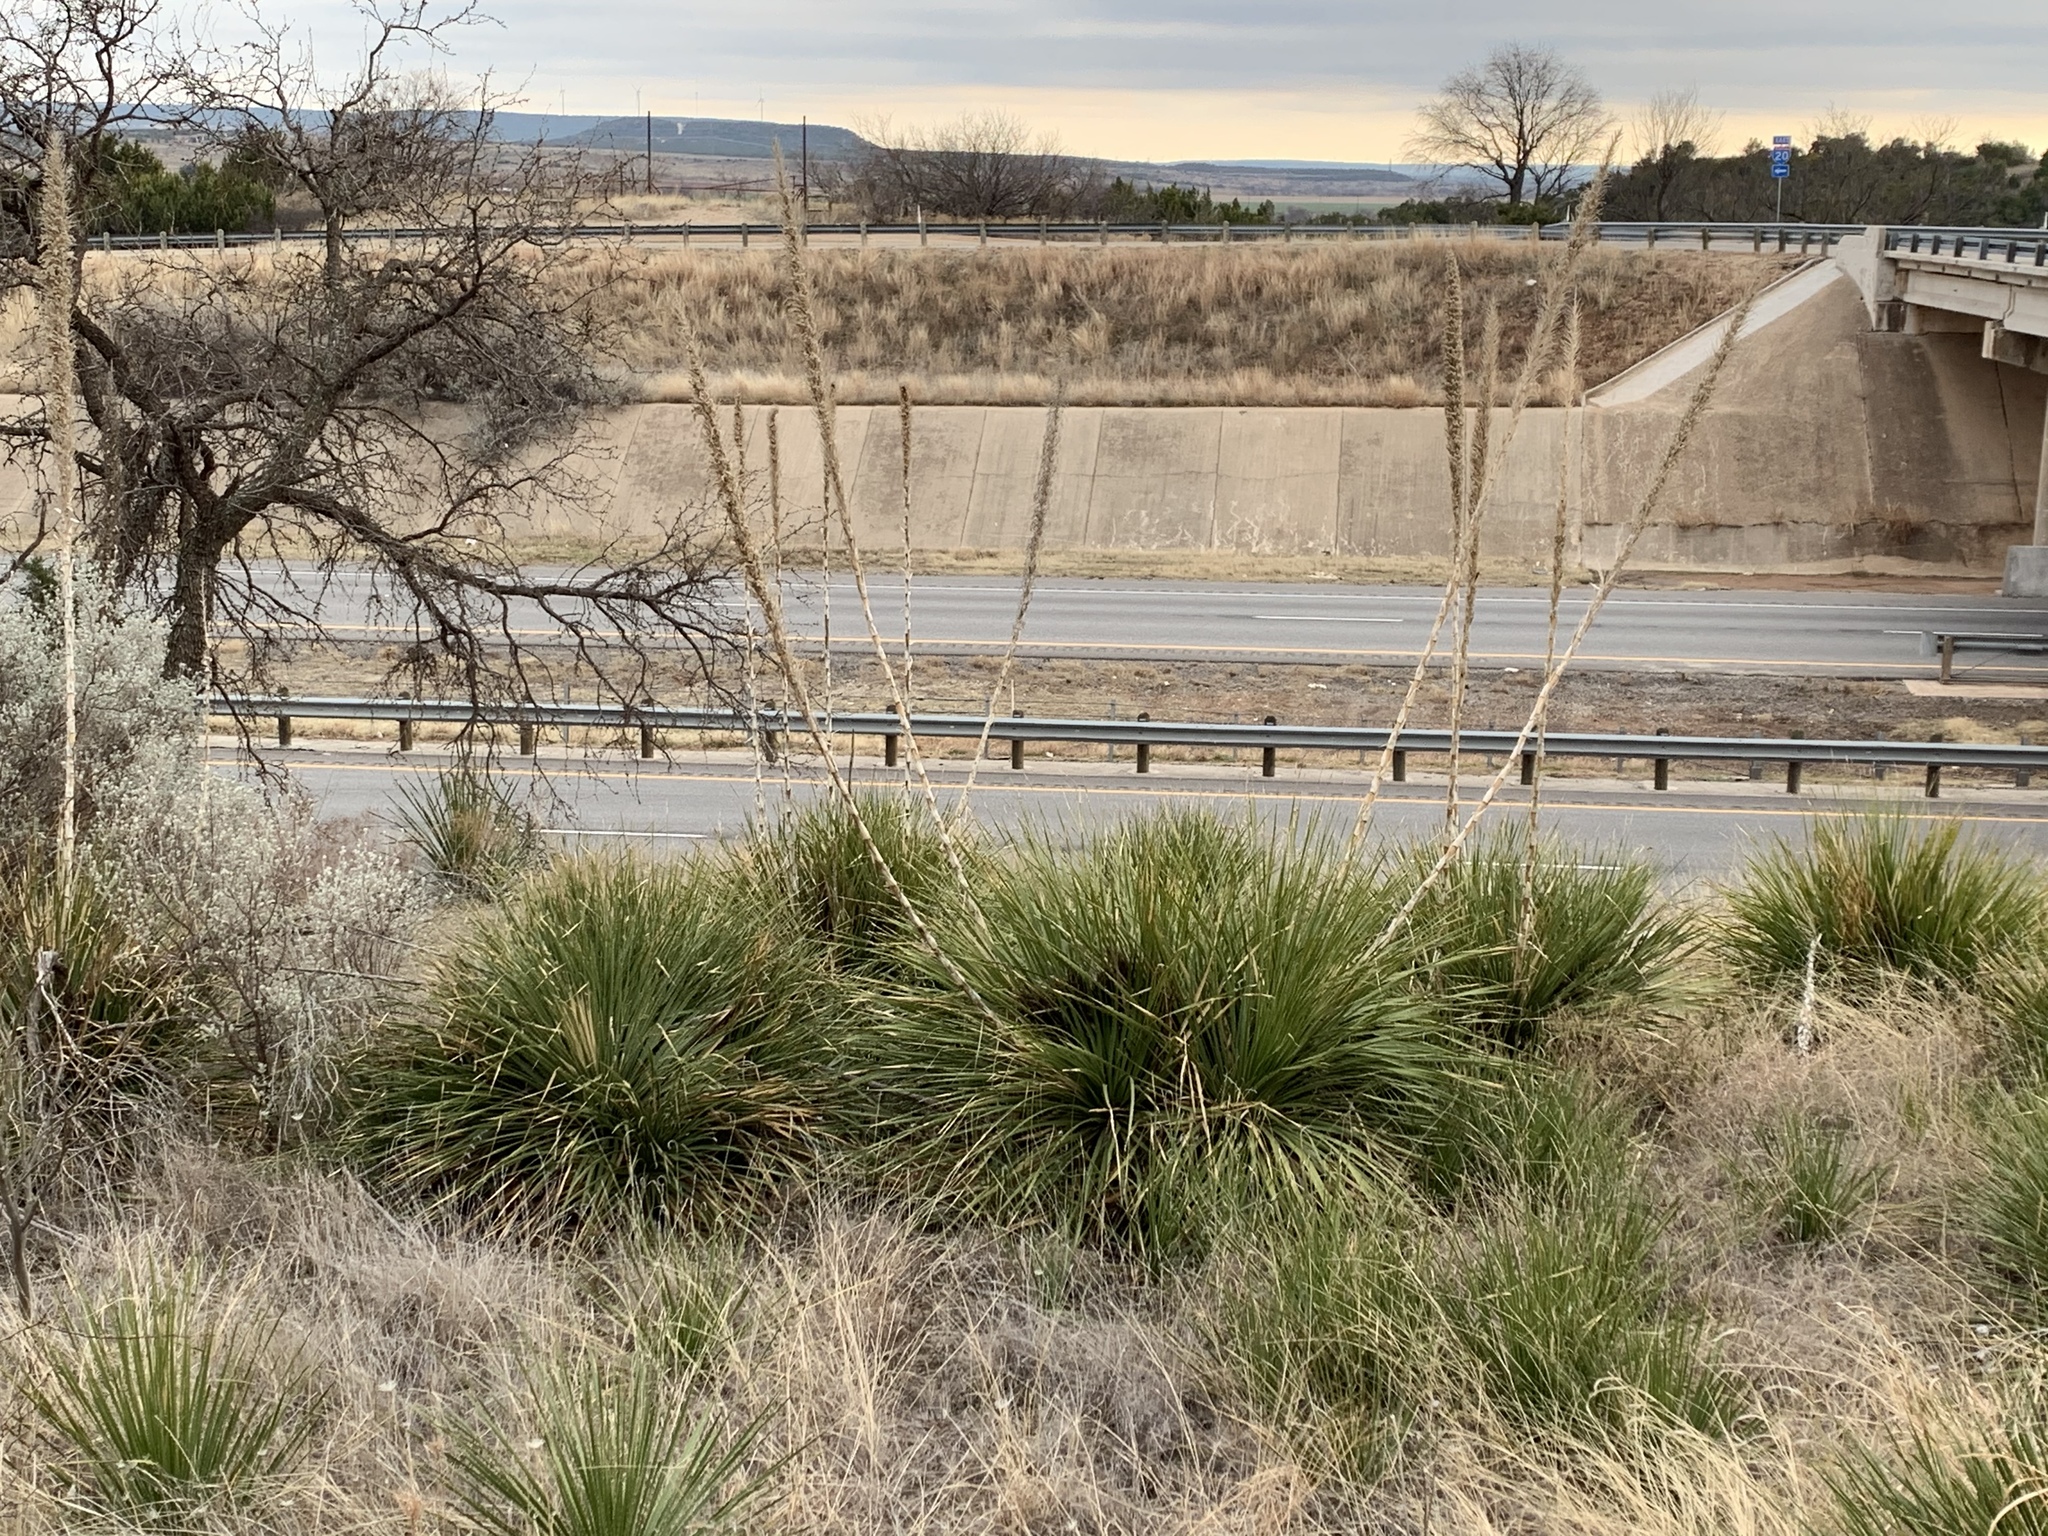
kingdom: Plantae
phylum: Tracheophyta
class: Liliopsida
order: Asparagales
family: Asparagaceae
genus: Dasylirion
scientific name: Dasylirion texanum
